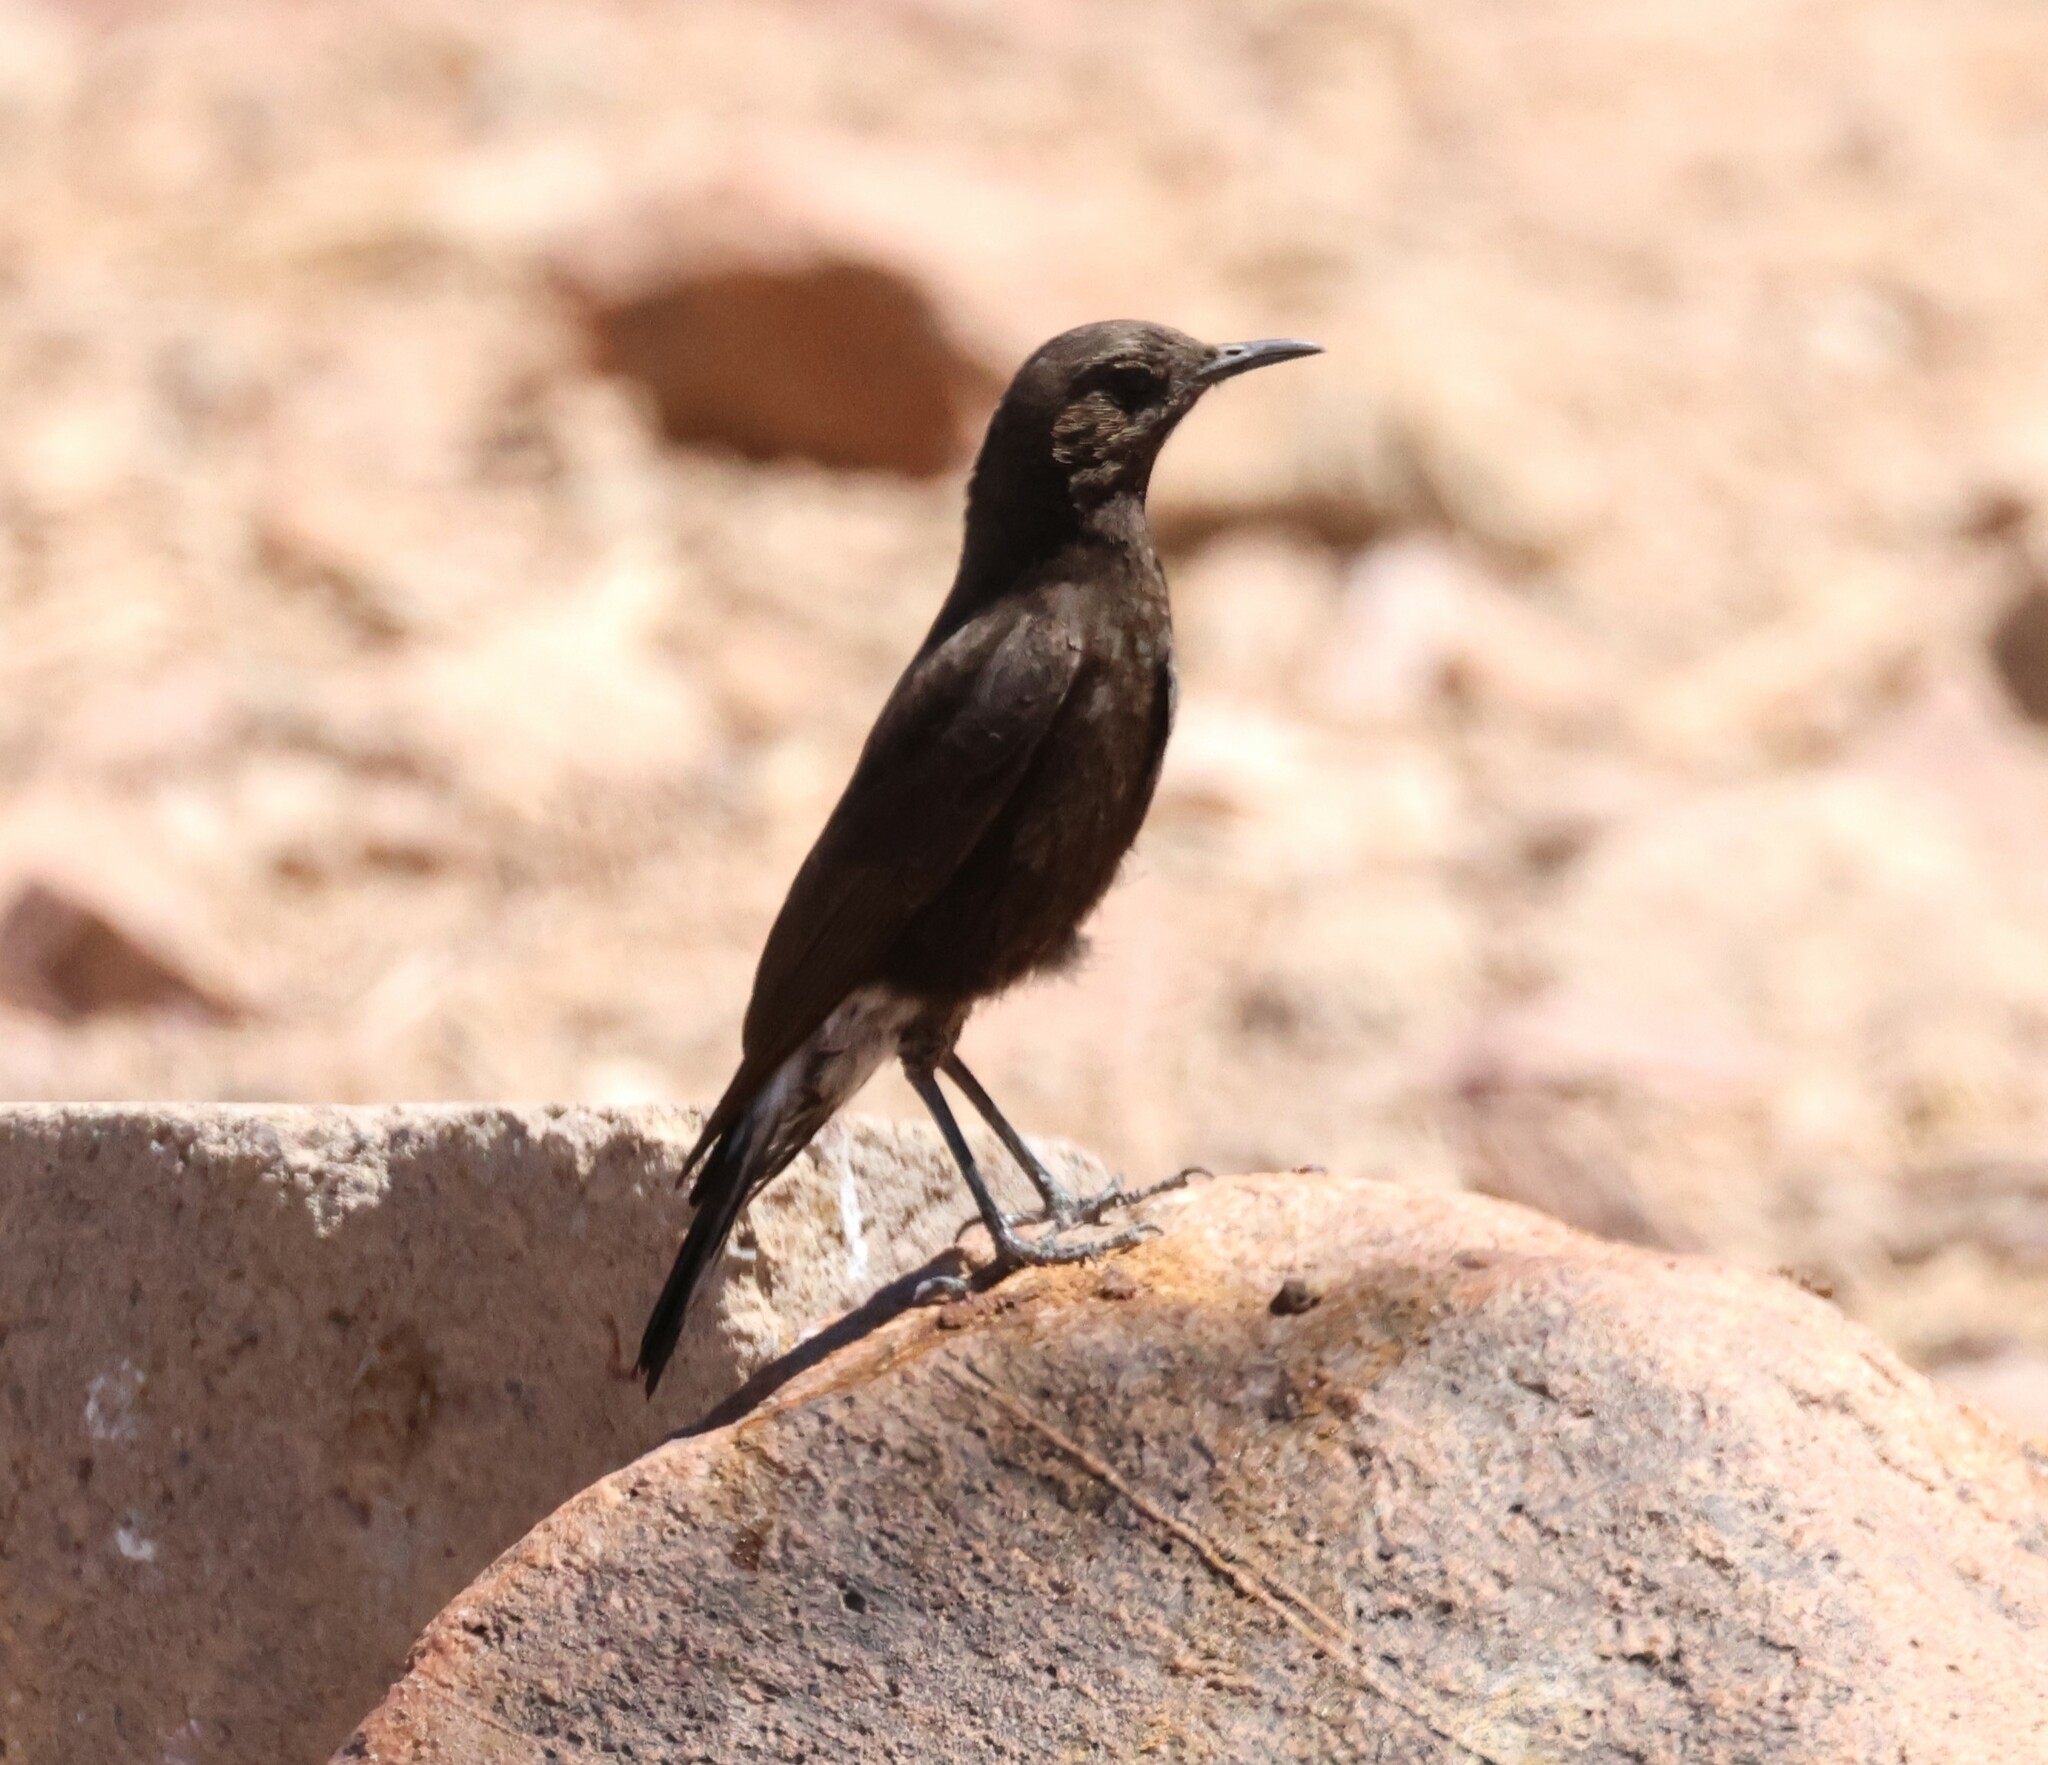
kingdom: Animalia
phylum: Chordata
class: Aves
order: Passeriformes
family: Muscicapidae
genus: Oenanthe
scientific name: Oenanthe monticola
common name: Mountain wheatear
